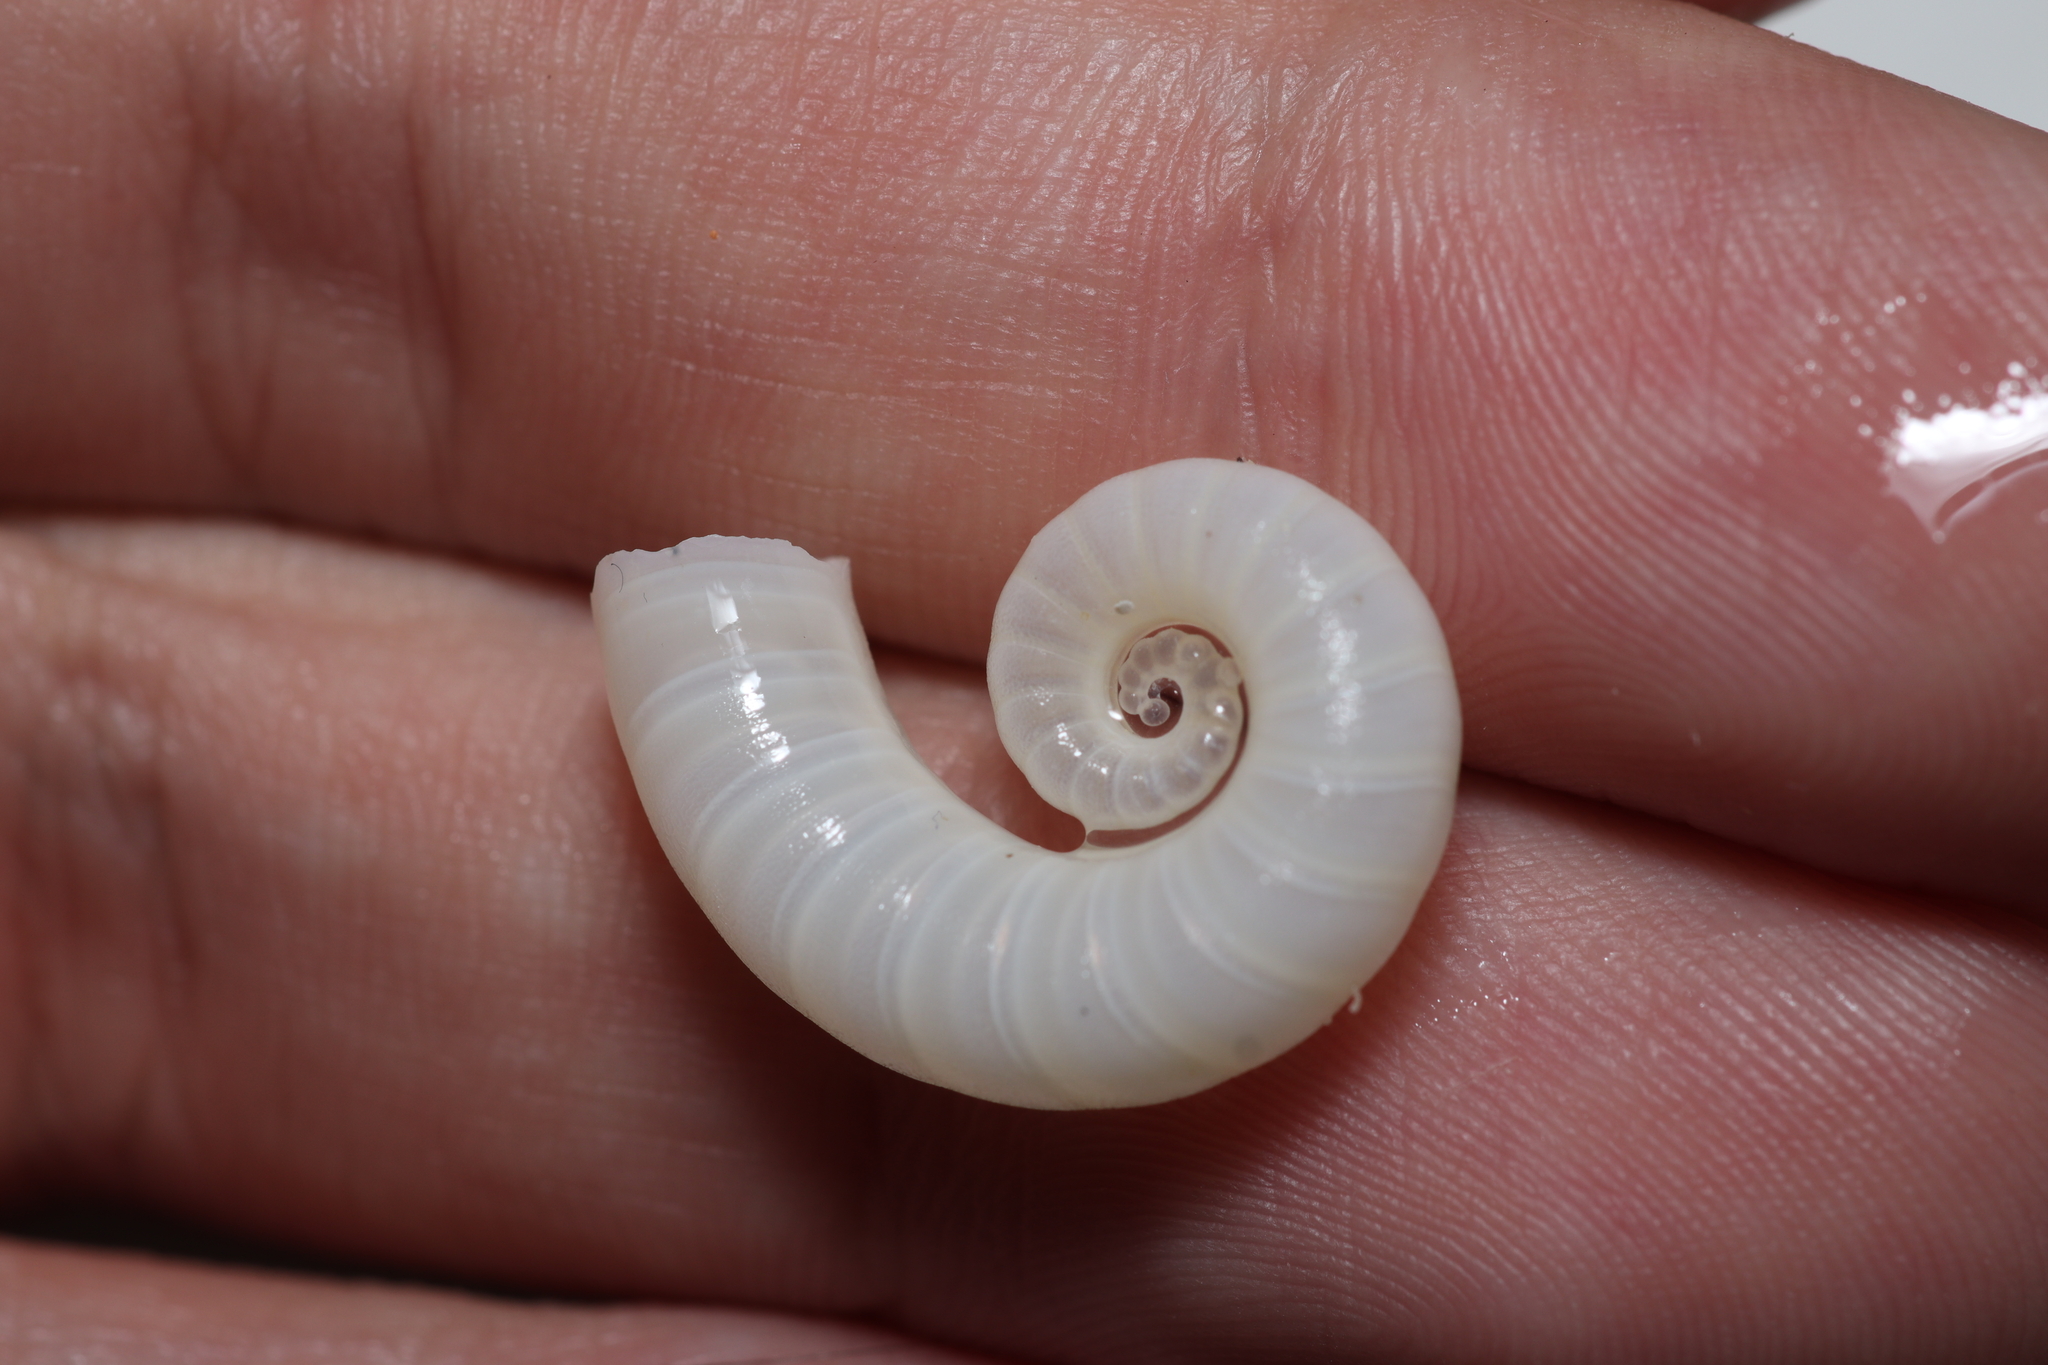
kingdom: Animalia
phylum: Mollusca
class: Cephalopoda
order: Spirulida
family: Spirulidae
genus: Spirula
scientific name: Spirula spirula
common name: Ram's horn squid
